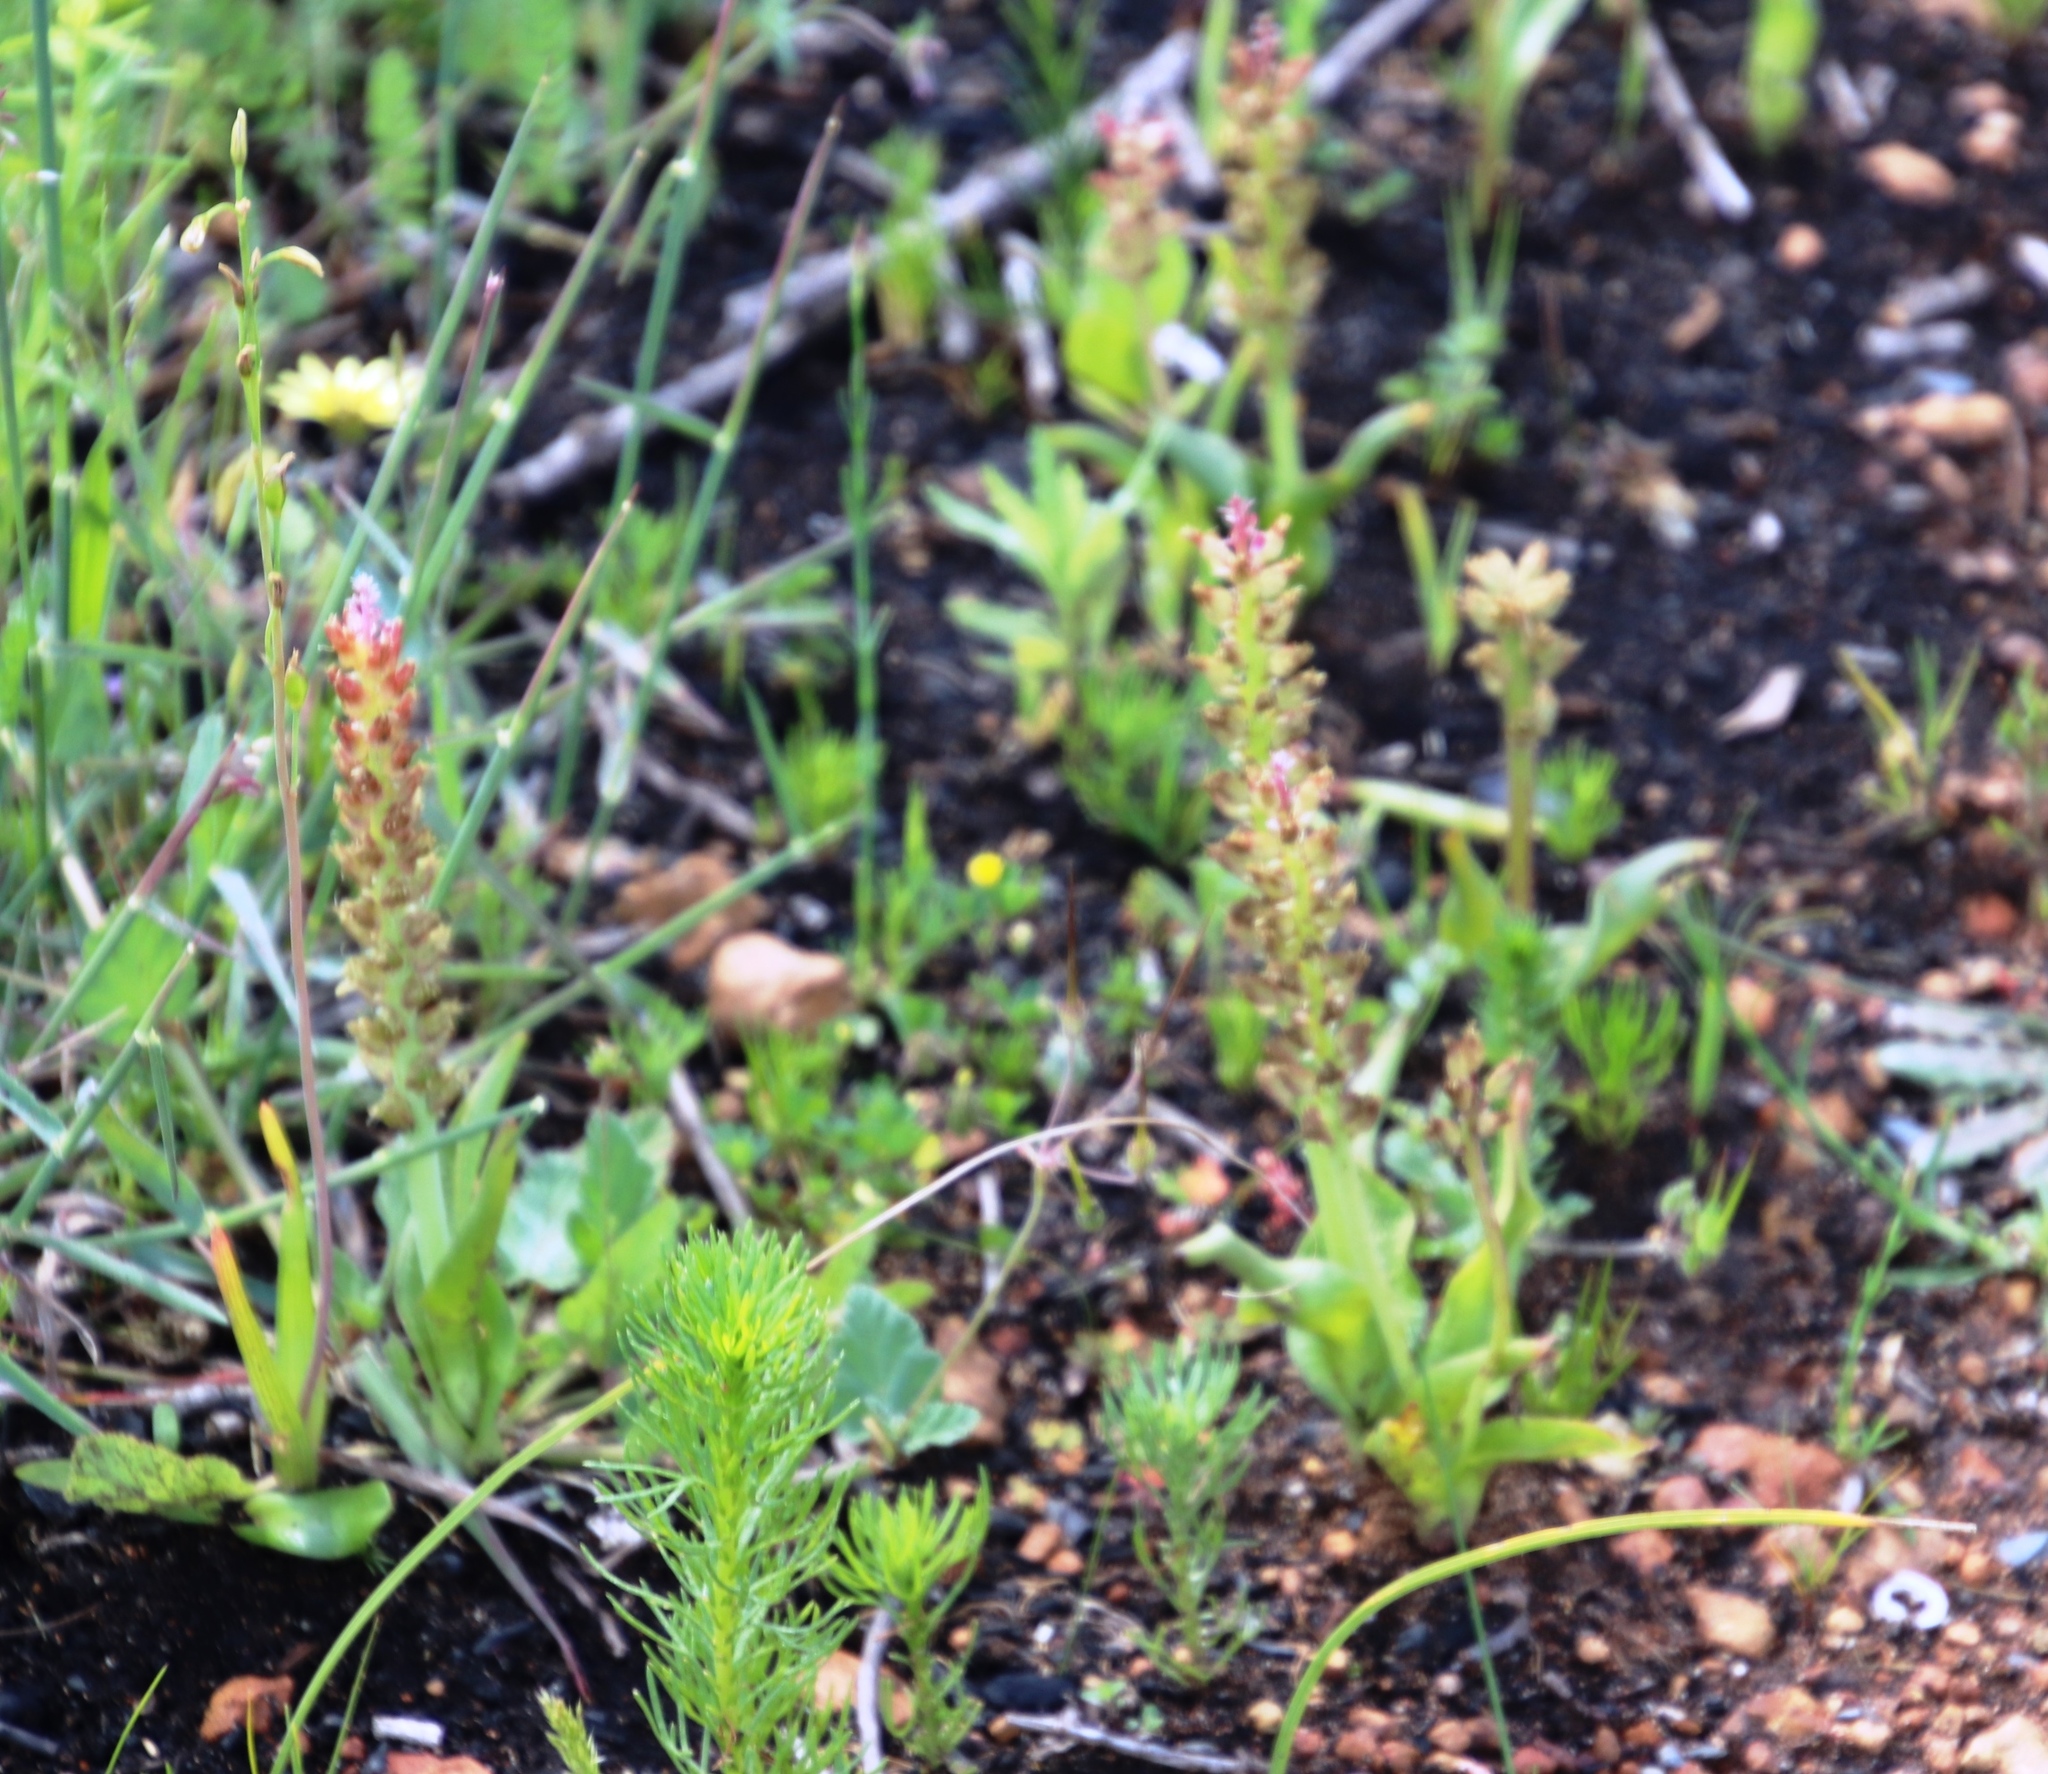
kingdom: Plantae
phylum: Tracheophyta
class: Liliopsida
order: Asparagales
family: Asparagaceae
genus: Lachenalia
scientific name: Lachenalia pallida
